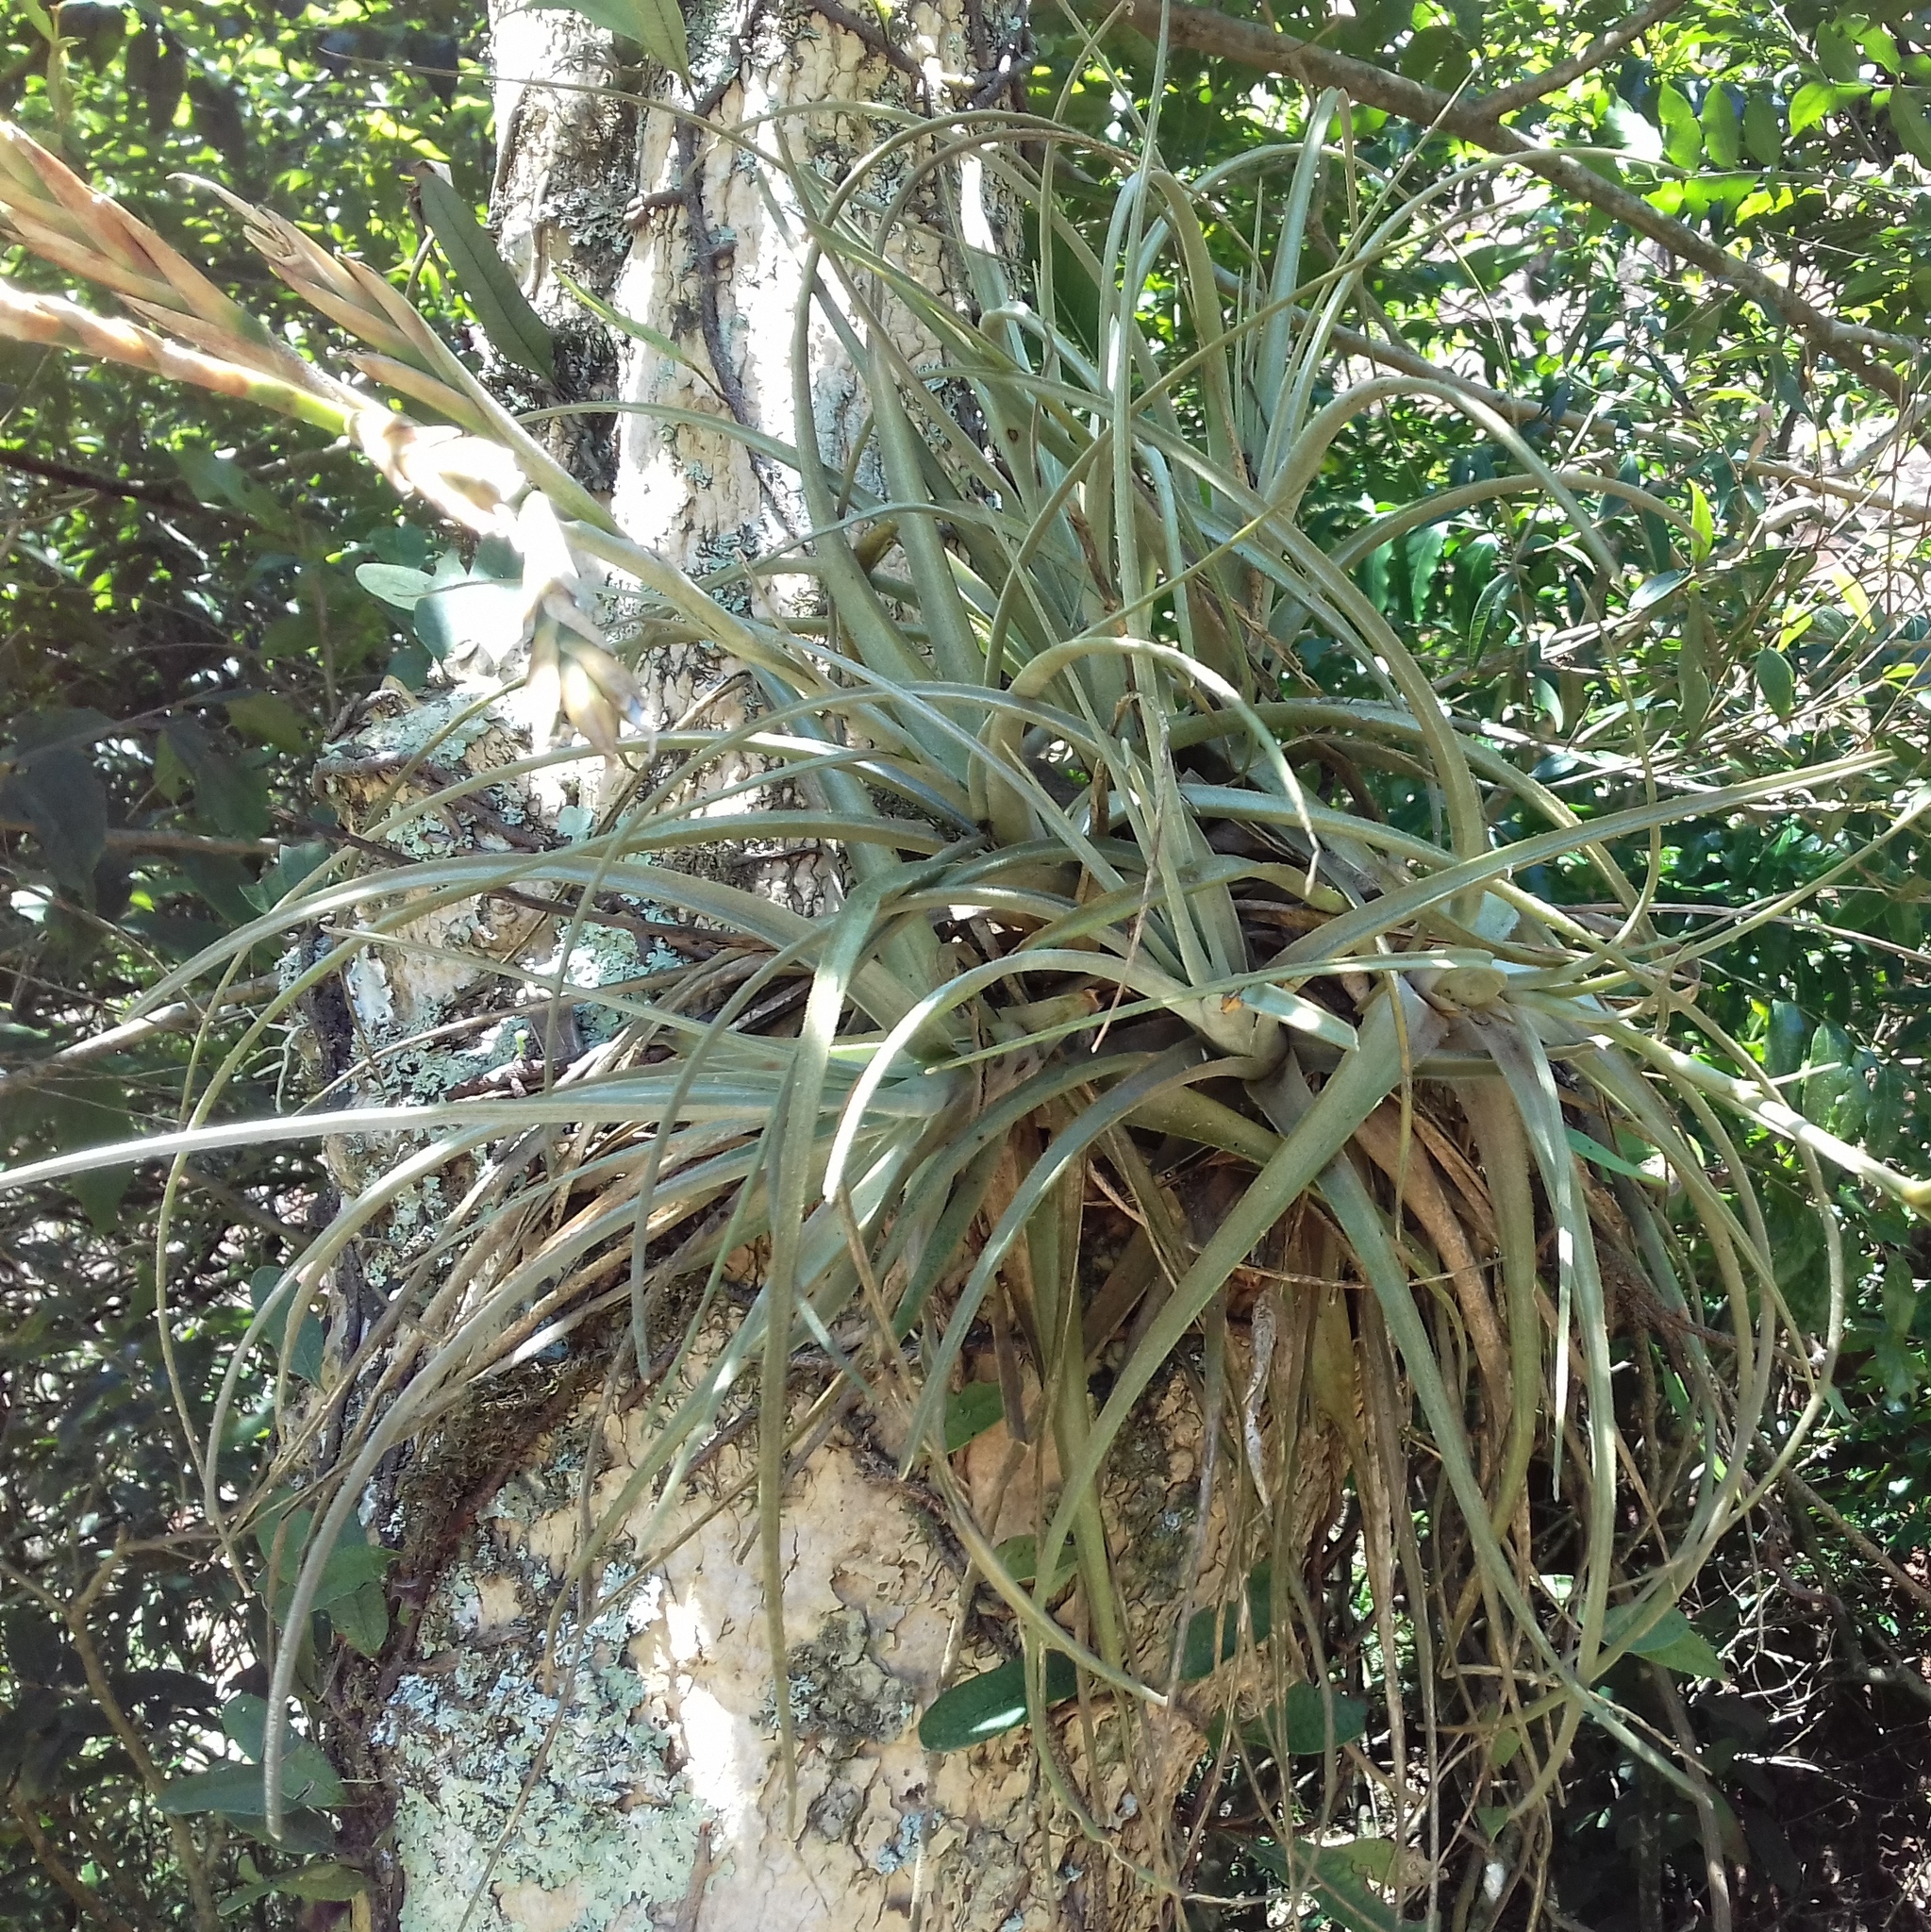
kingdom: Plantae
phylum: Tracheophyta
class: Liliopsida
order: Poales
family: Bromeliaceae
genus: Tillandsia
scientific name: Tillandsia lorentziana
